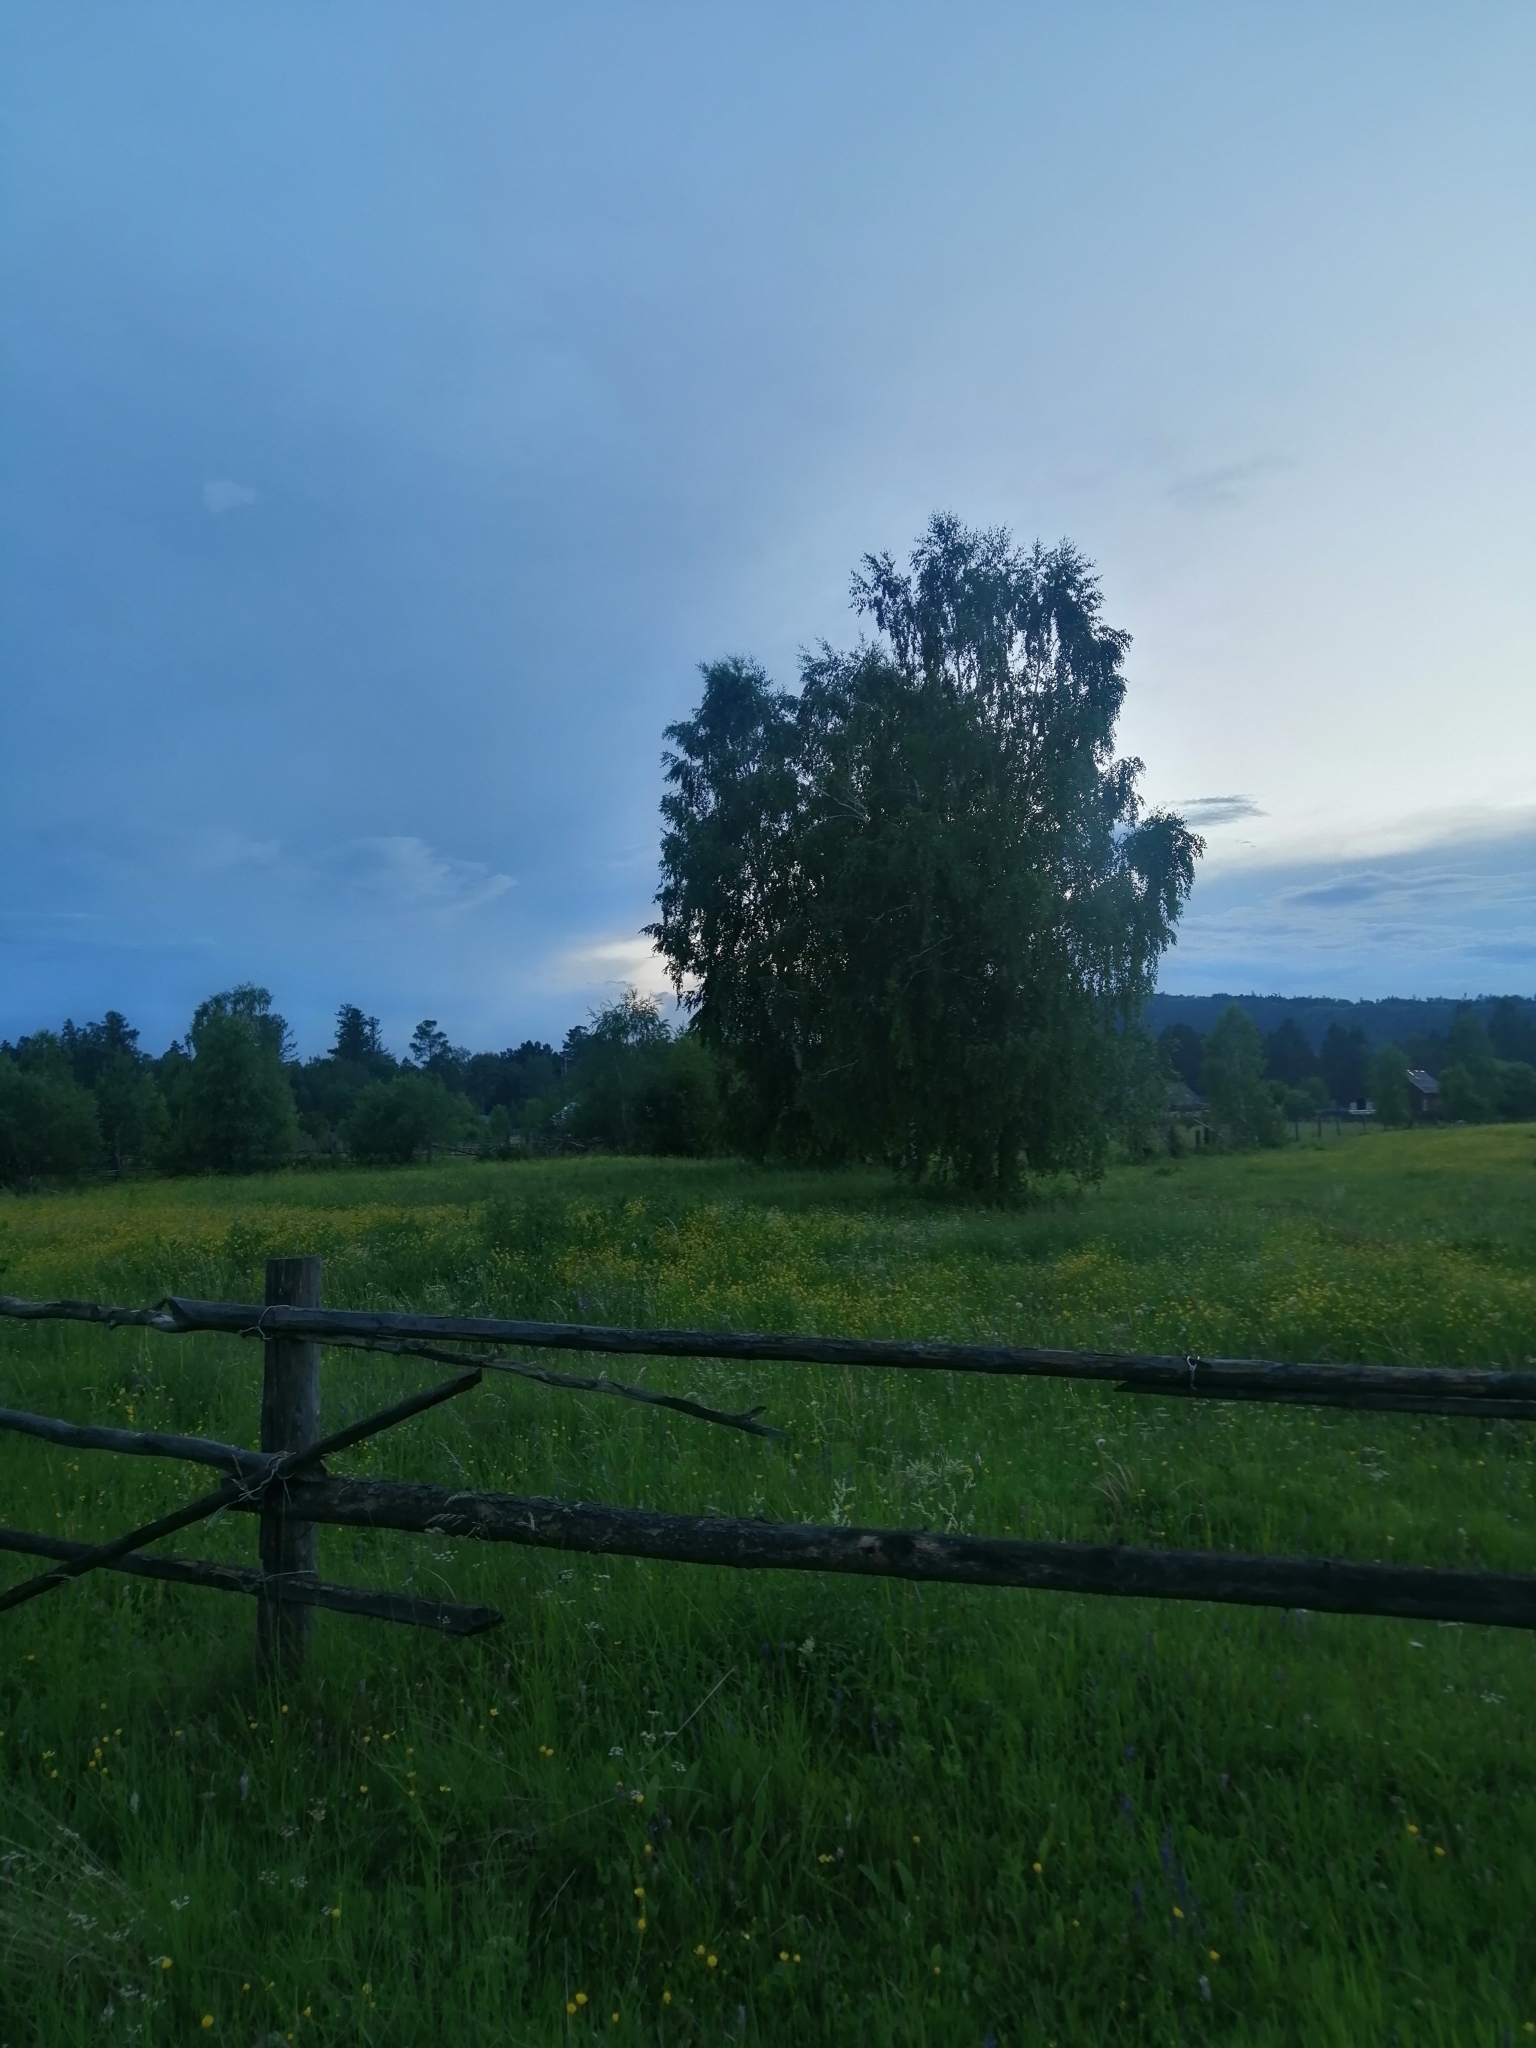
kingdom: Plantae
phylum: Tracheophyta
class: Magnoliopsida
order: Fagales
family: Betulaceae
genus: Betula
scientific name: Betula pendula
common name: Silver birch
